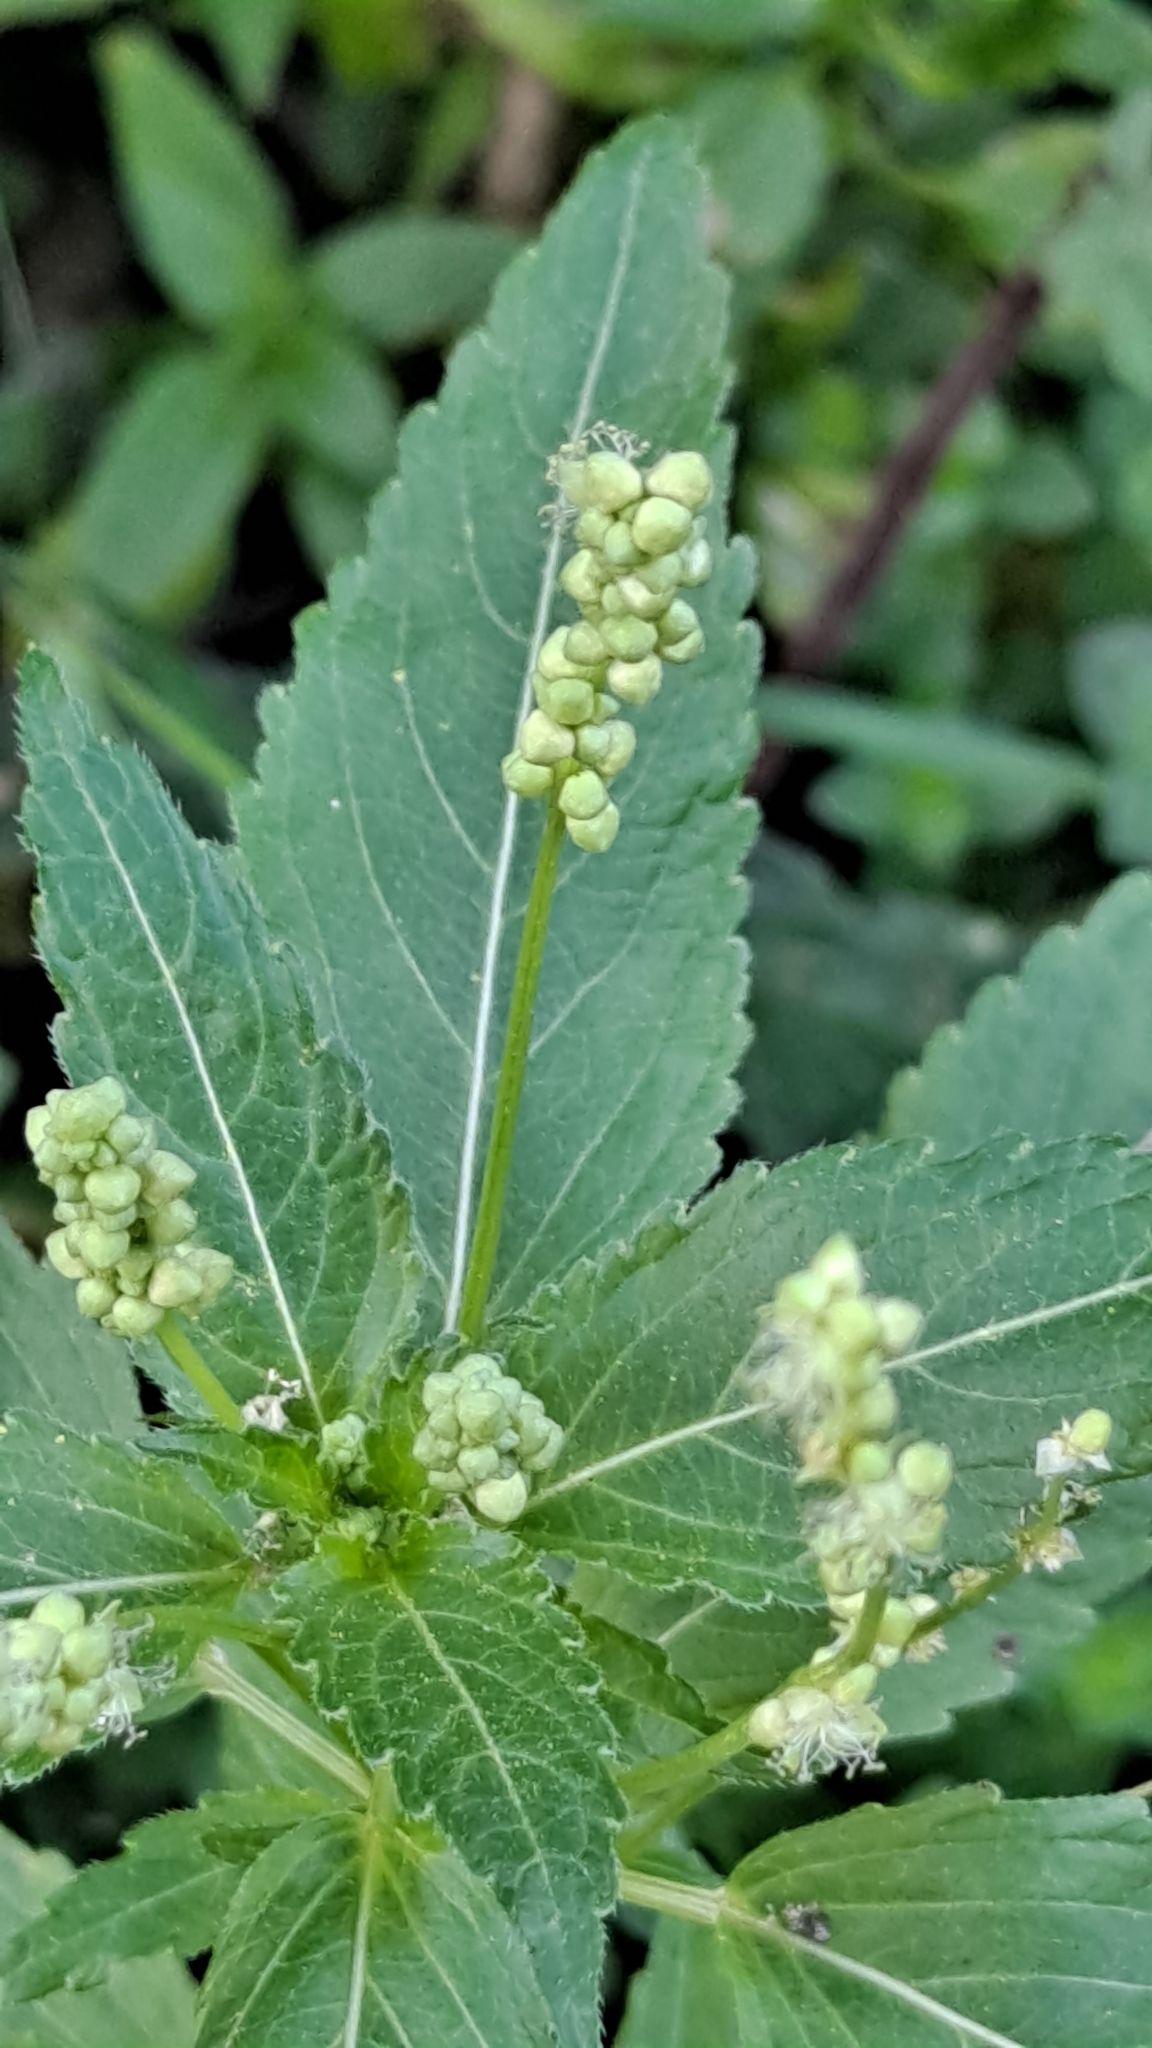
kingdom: Plantae
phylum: Tracheophyta
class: Magnoliopsida
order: Malpighiales
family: Euphorbiaceae
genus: Mercurialis
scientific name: Mercurialis annua
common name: Annual mercury
